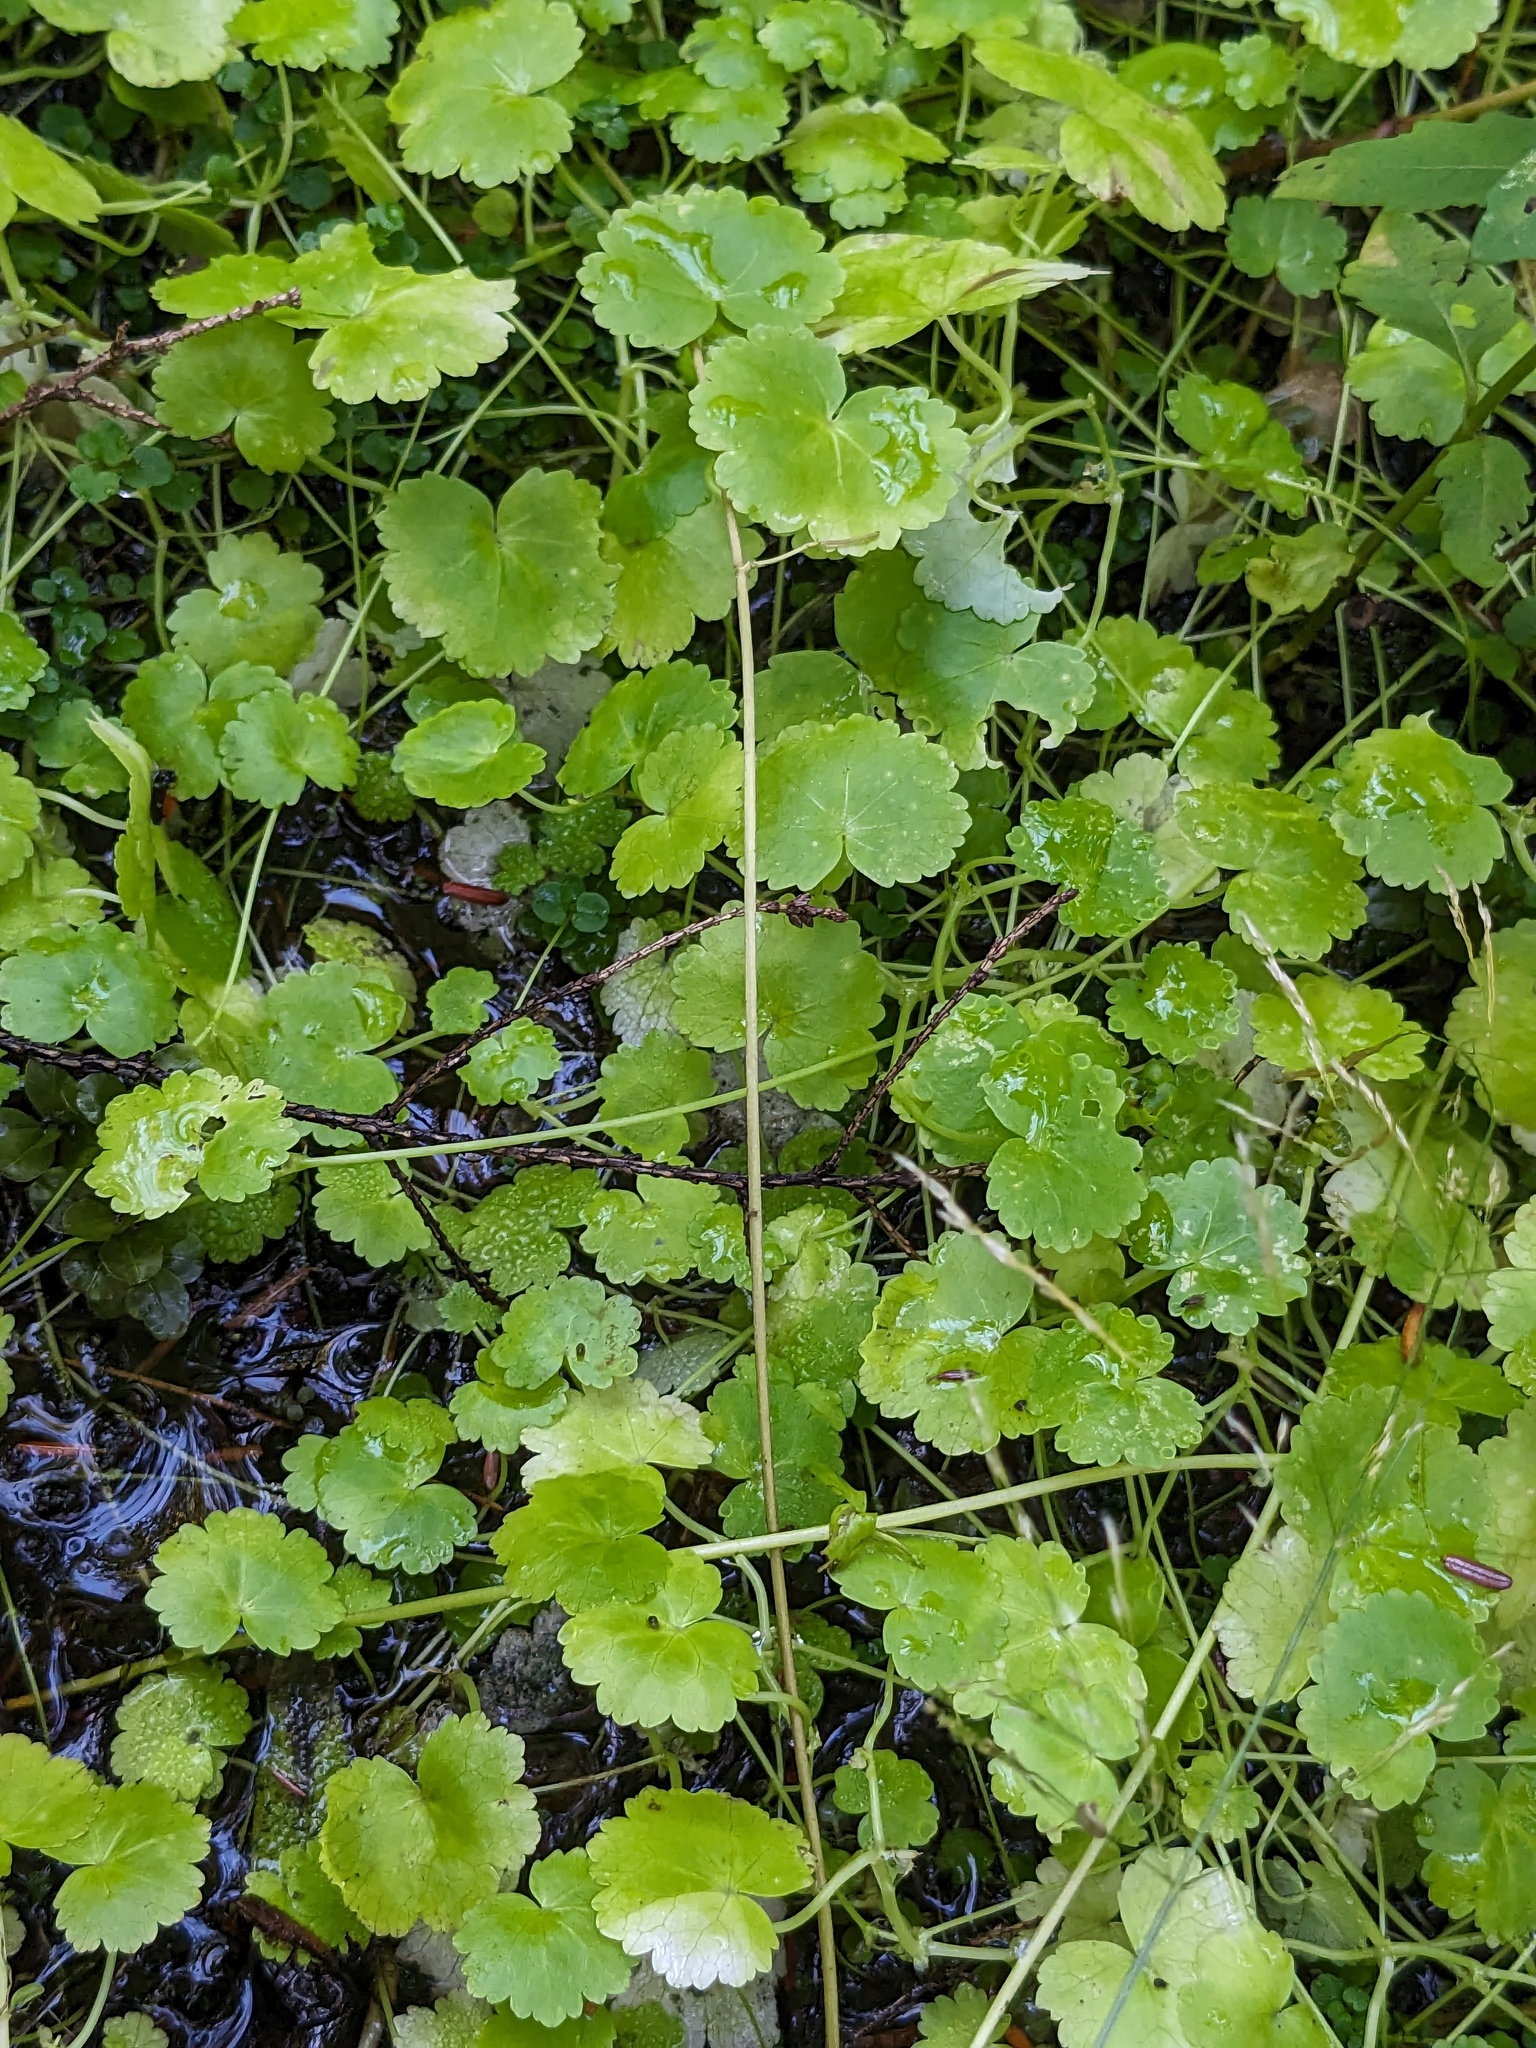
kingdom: Plantae
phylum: Tracheophyta
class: Magnoliopsida
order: Apiales
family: Araliaceae
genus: Hydrocotyle
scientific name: Hydrocotyle americana
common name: American water-pennywort
